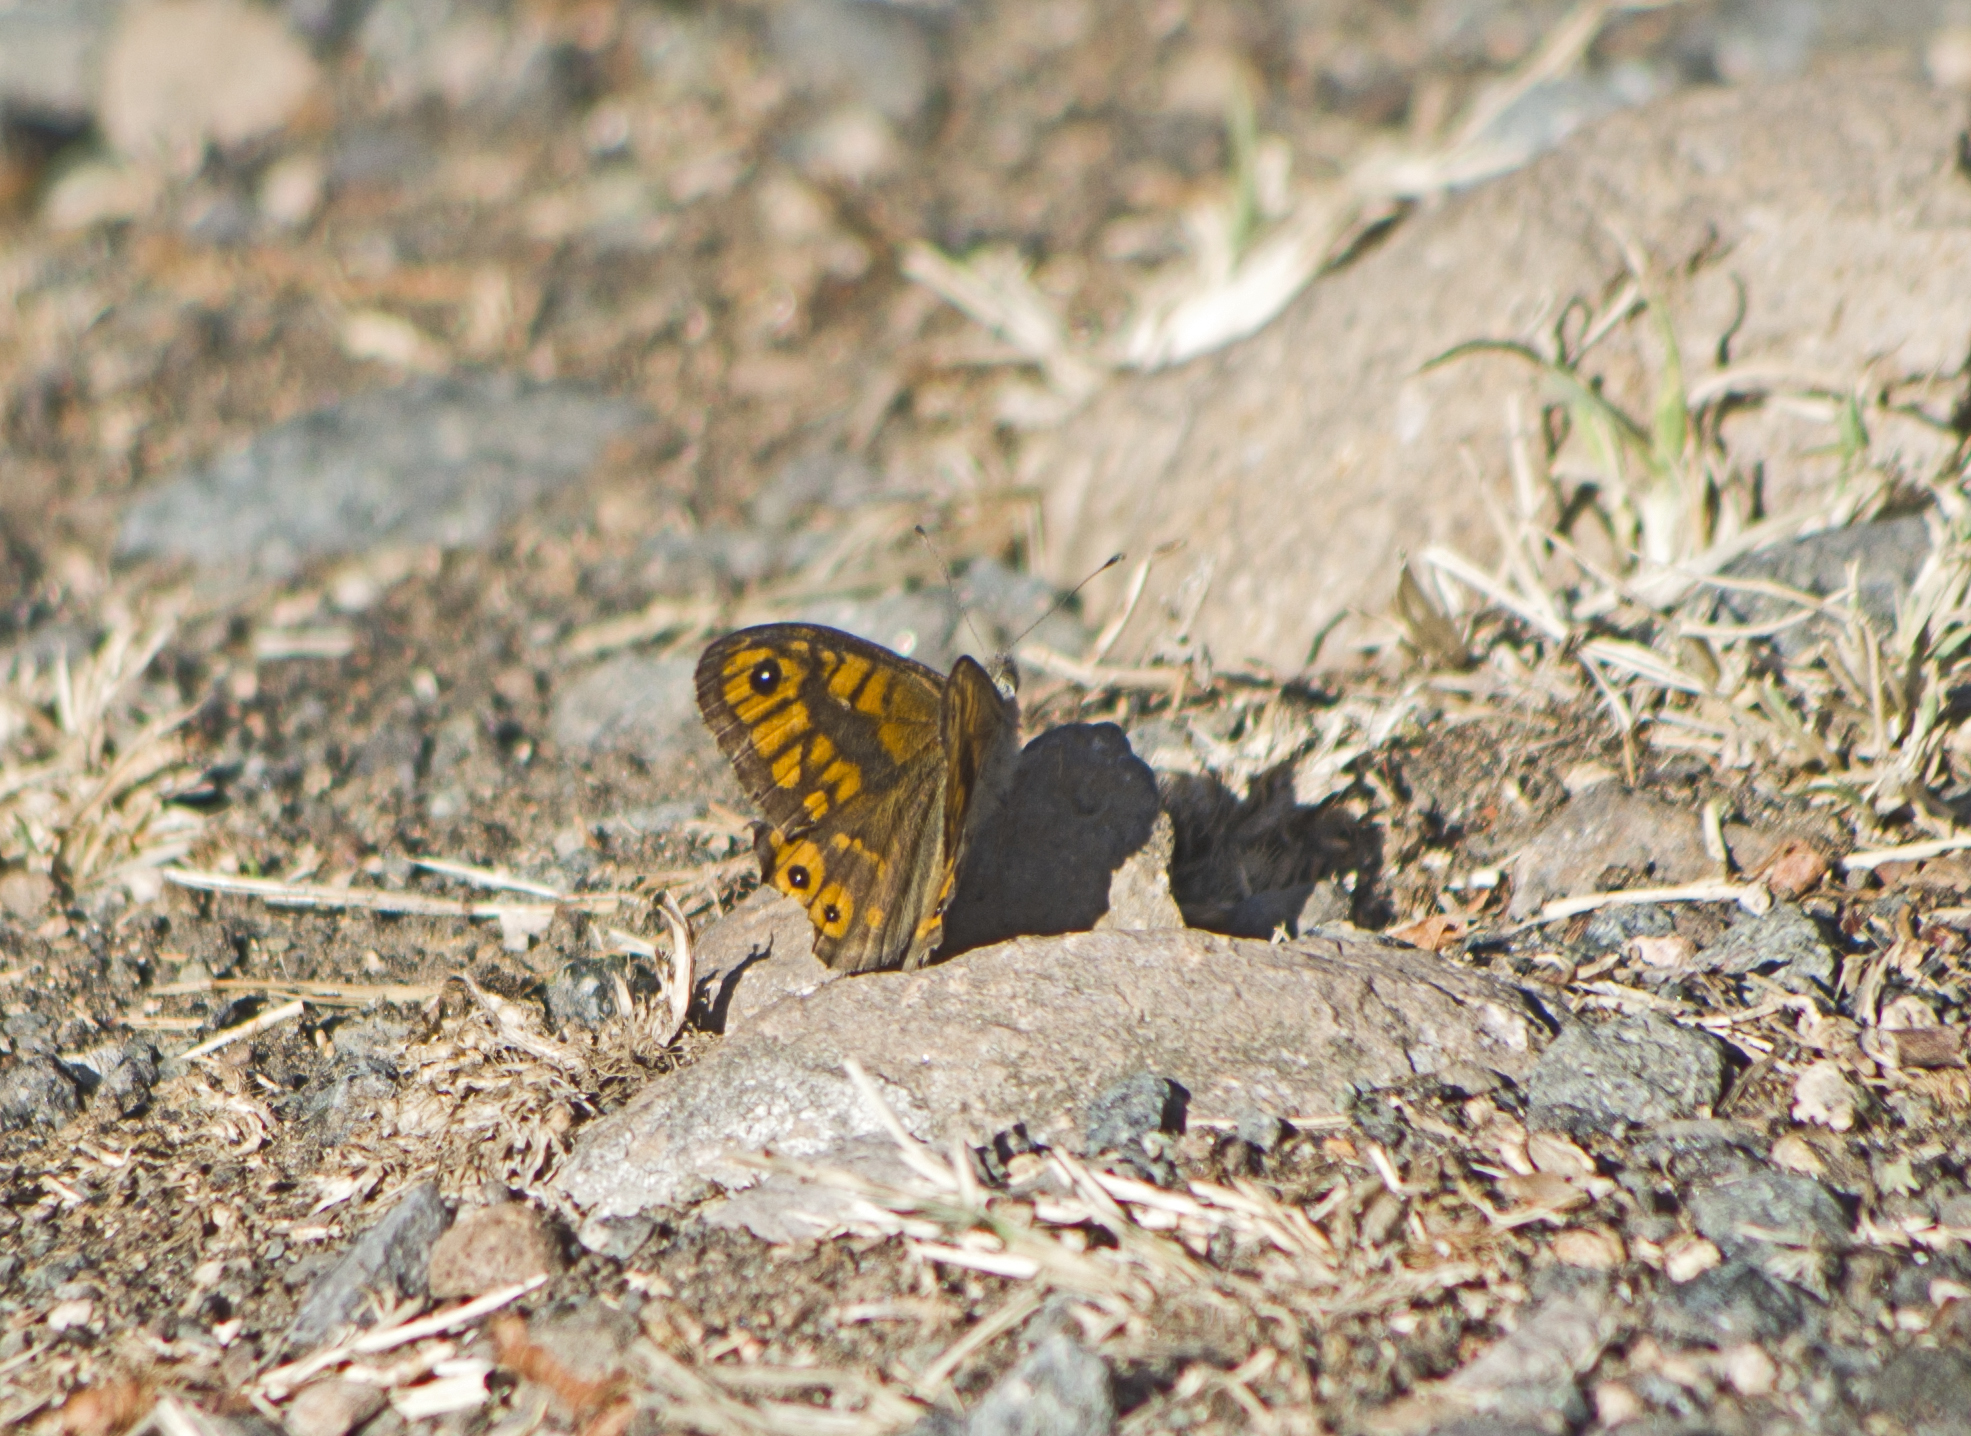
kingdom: Animalia
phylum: Arthropoda
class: Insecta
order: Lepidoptera
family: Nymphalidae
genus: Pararge
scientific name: Pararge Lasiommata megera
